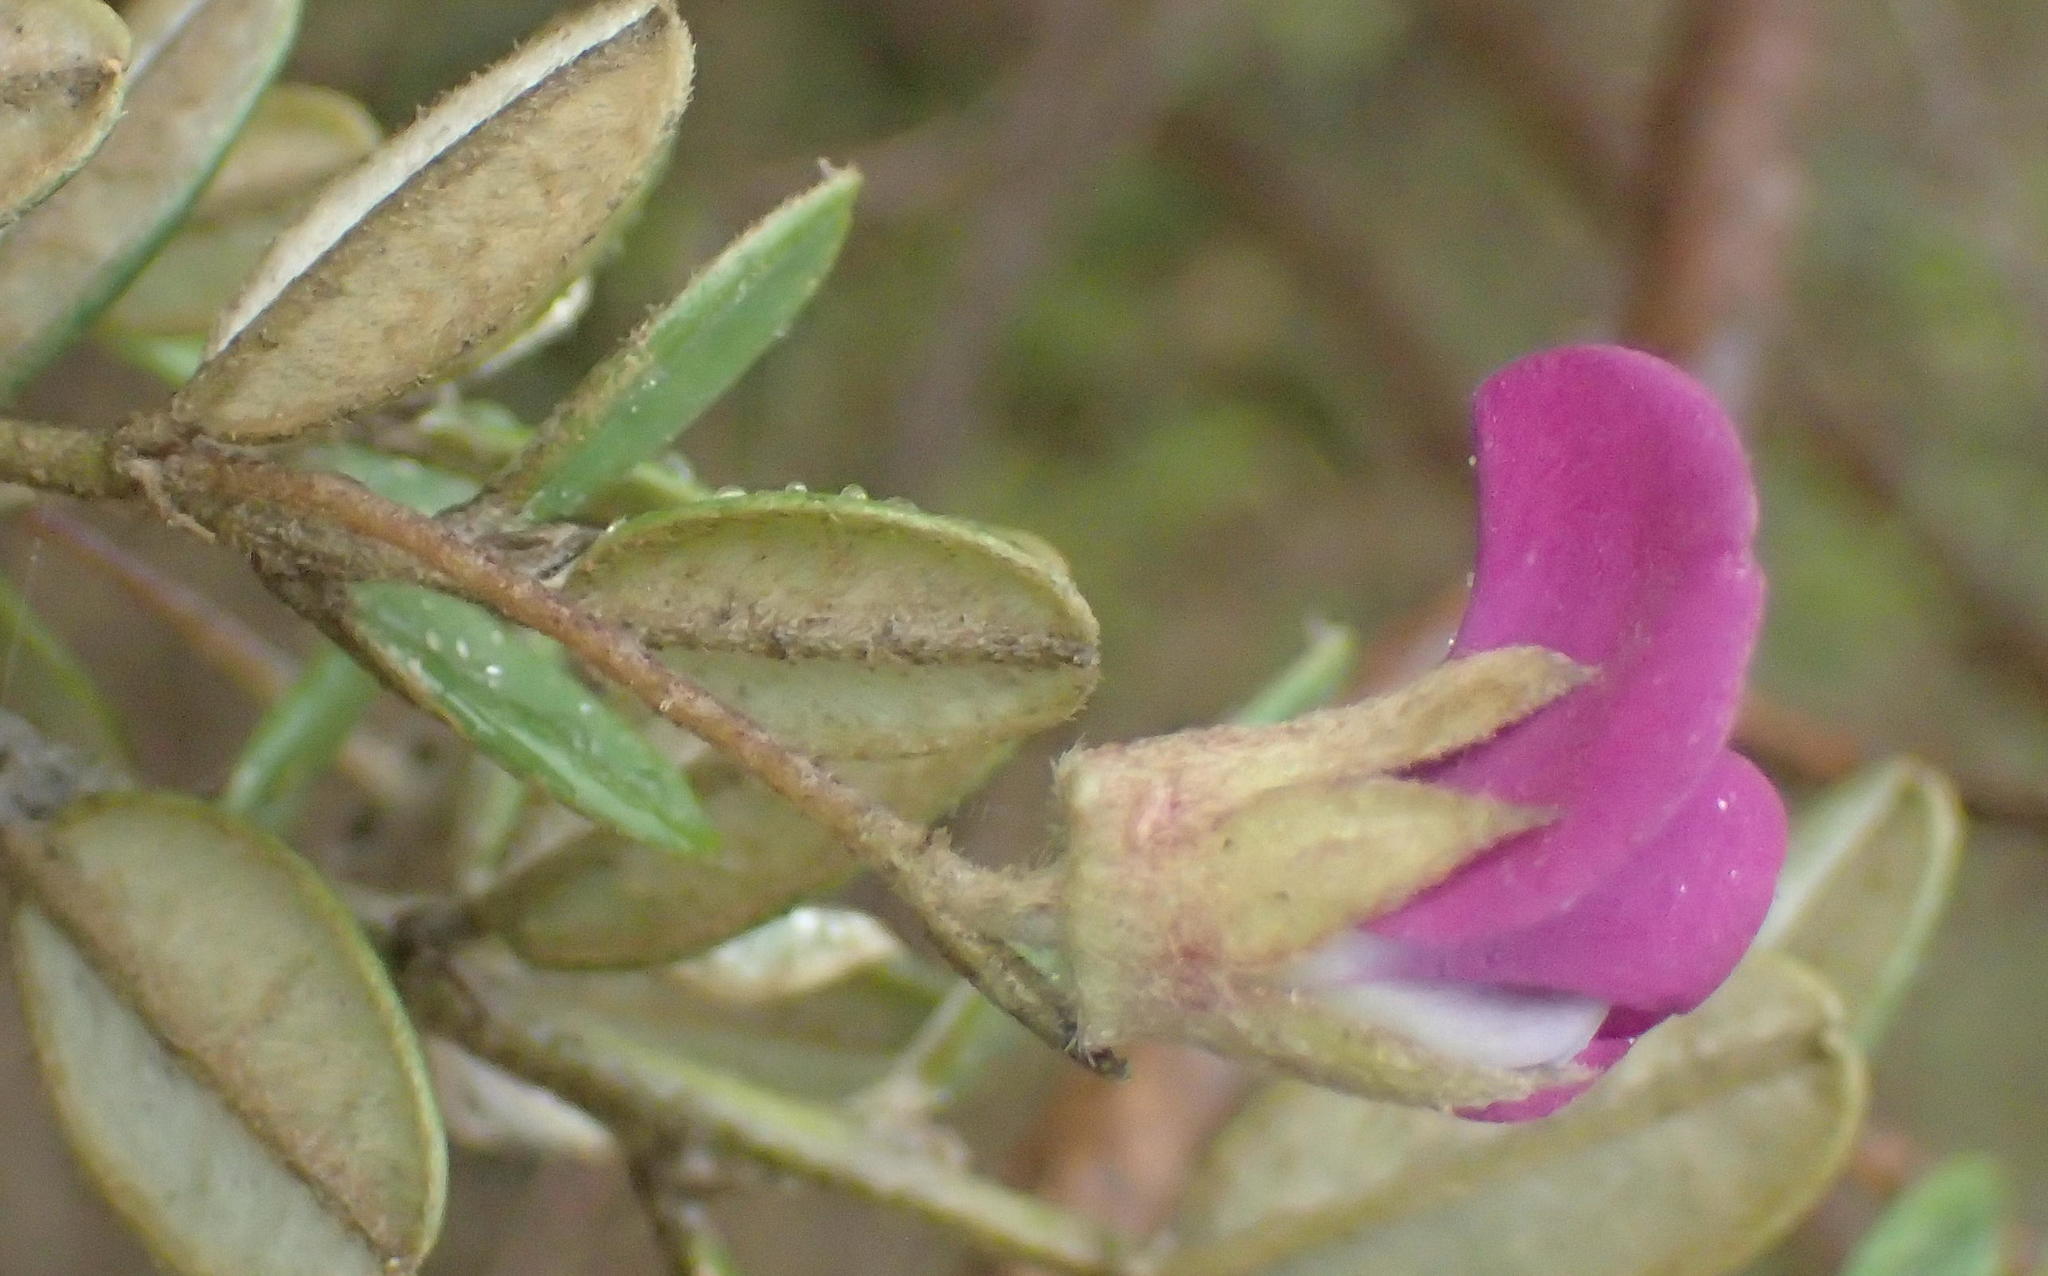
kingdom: Plantae
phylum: Tracheophyta
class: Magnoliopsida
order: Fabales
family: Fabaceae
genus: Podalyria
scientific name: Podalyria buxifolia
